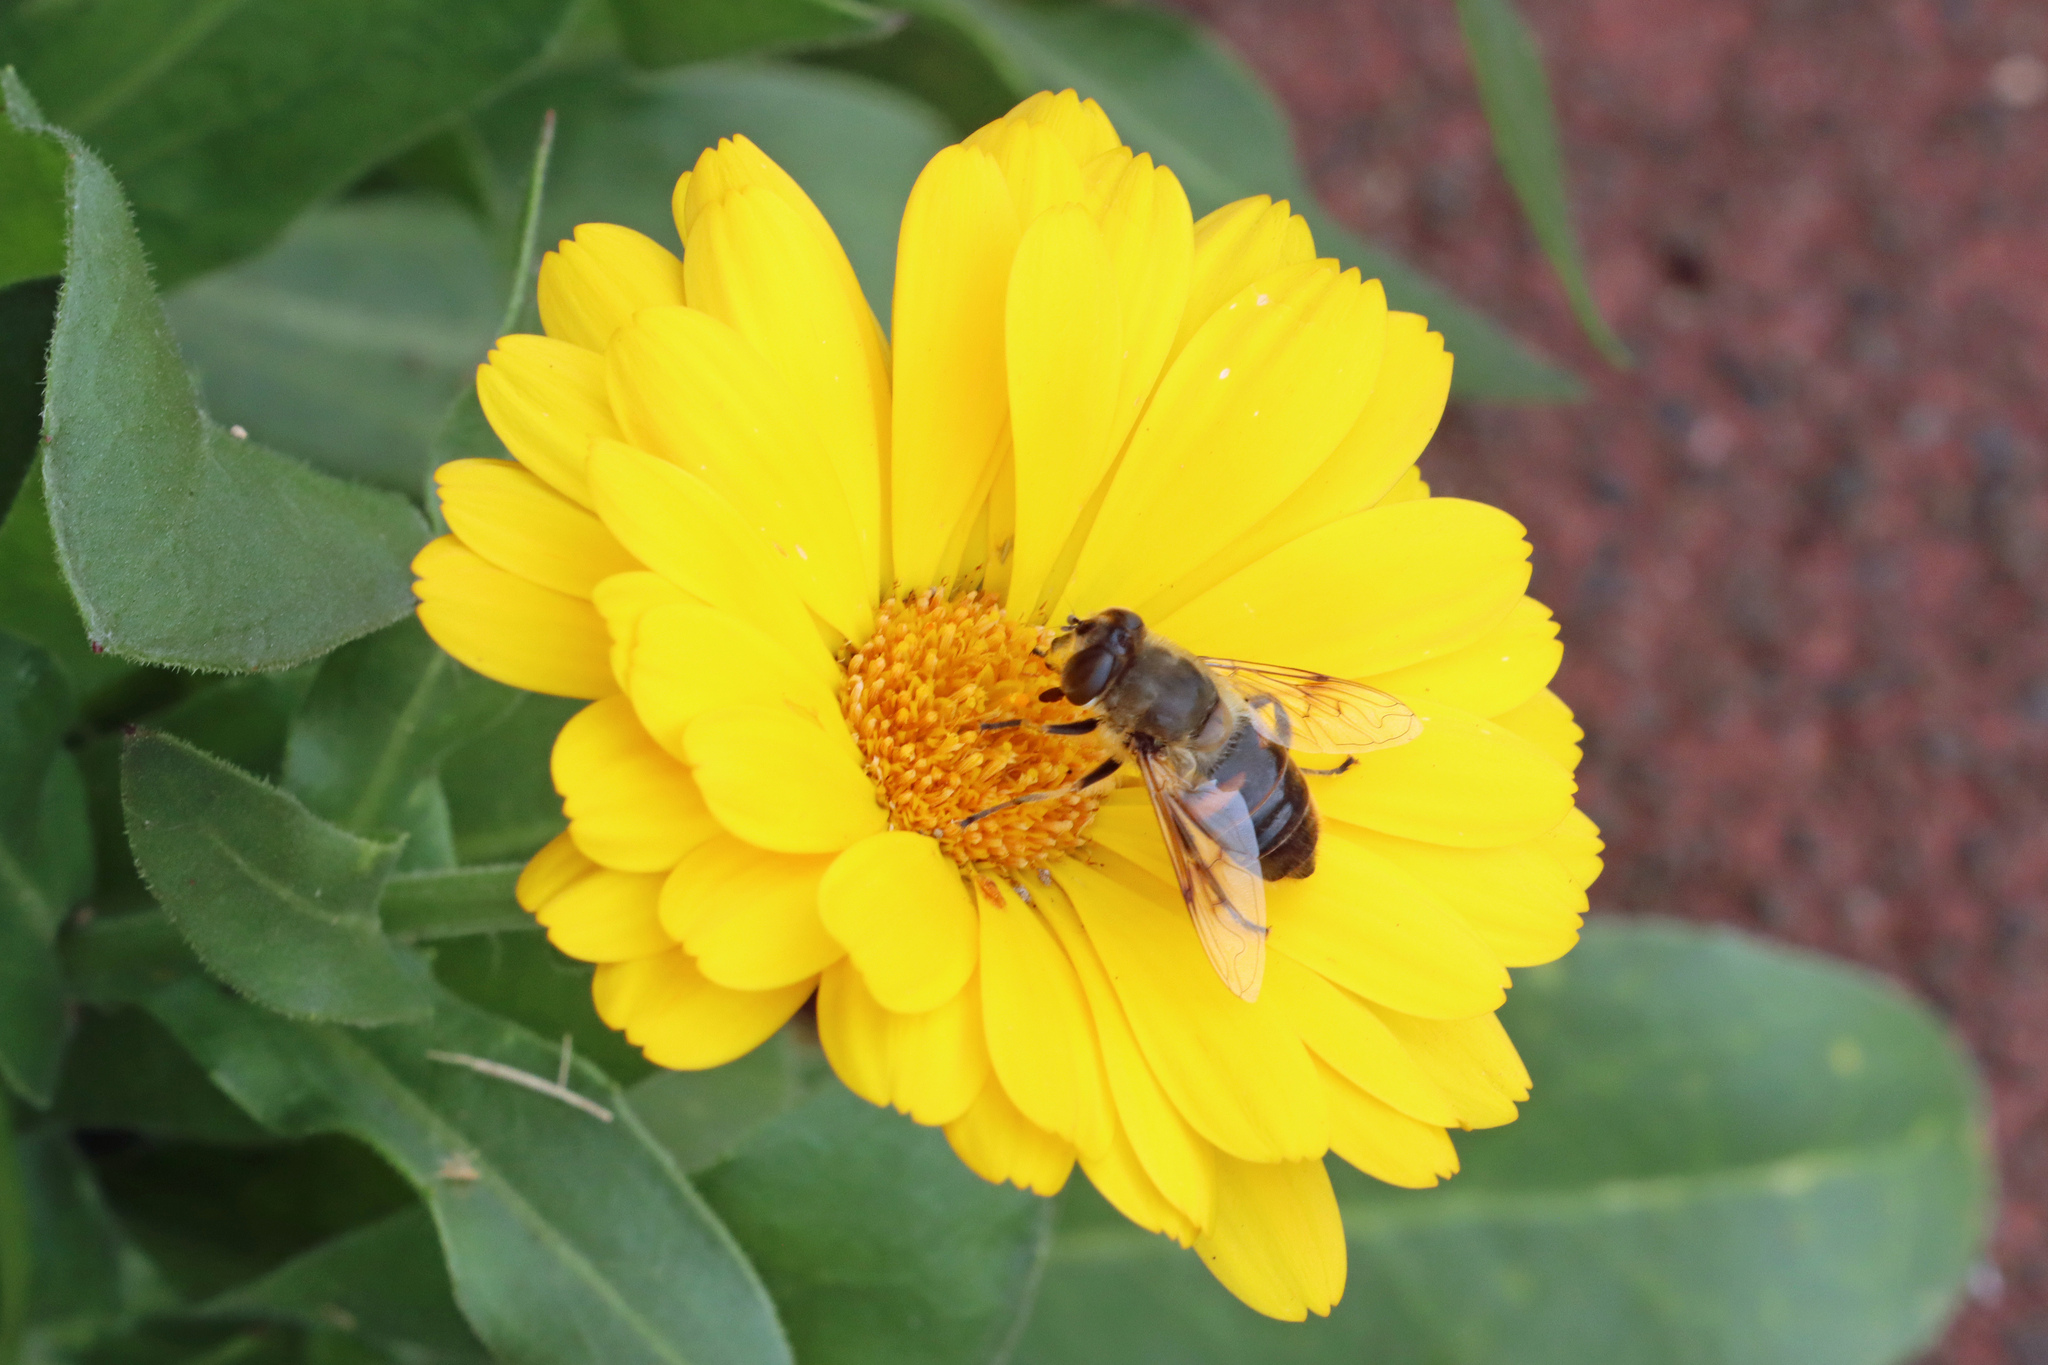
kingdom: Animalia
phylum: Arthropoda
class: Insecta
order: Diptera
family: Syrphidae
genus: Eristalis
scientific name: Eristalis tenax
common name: Drone fly
